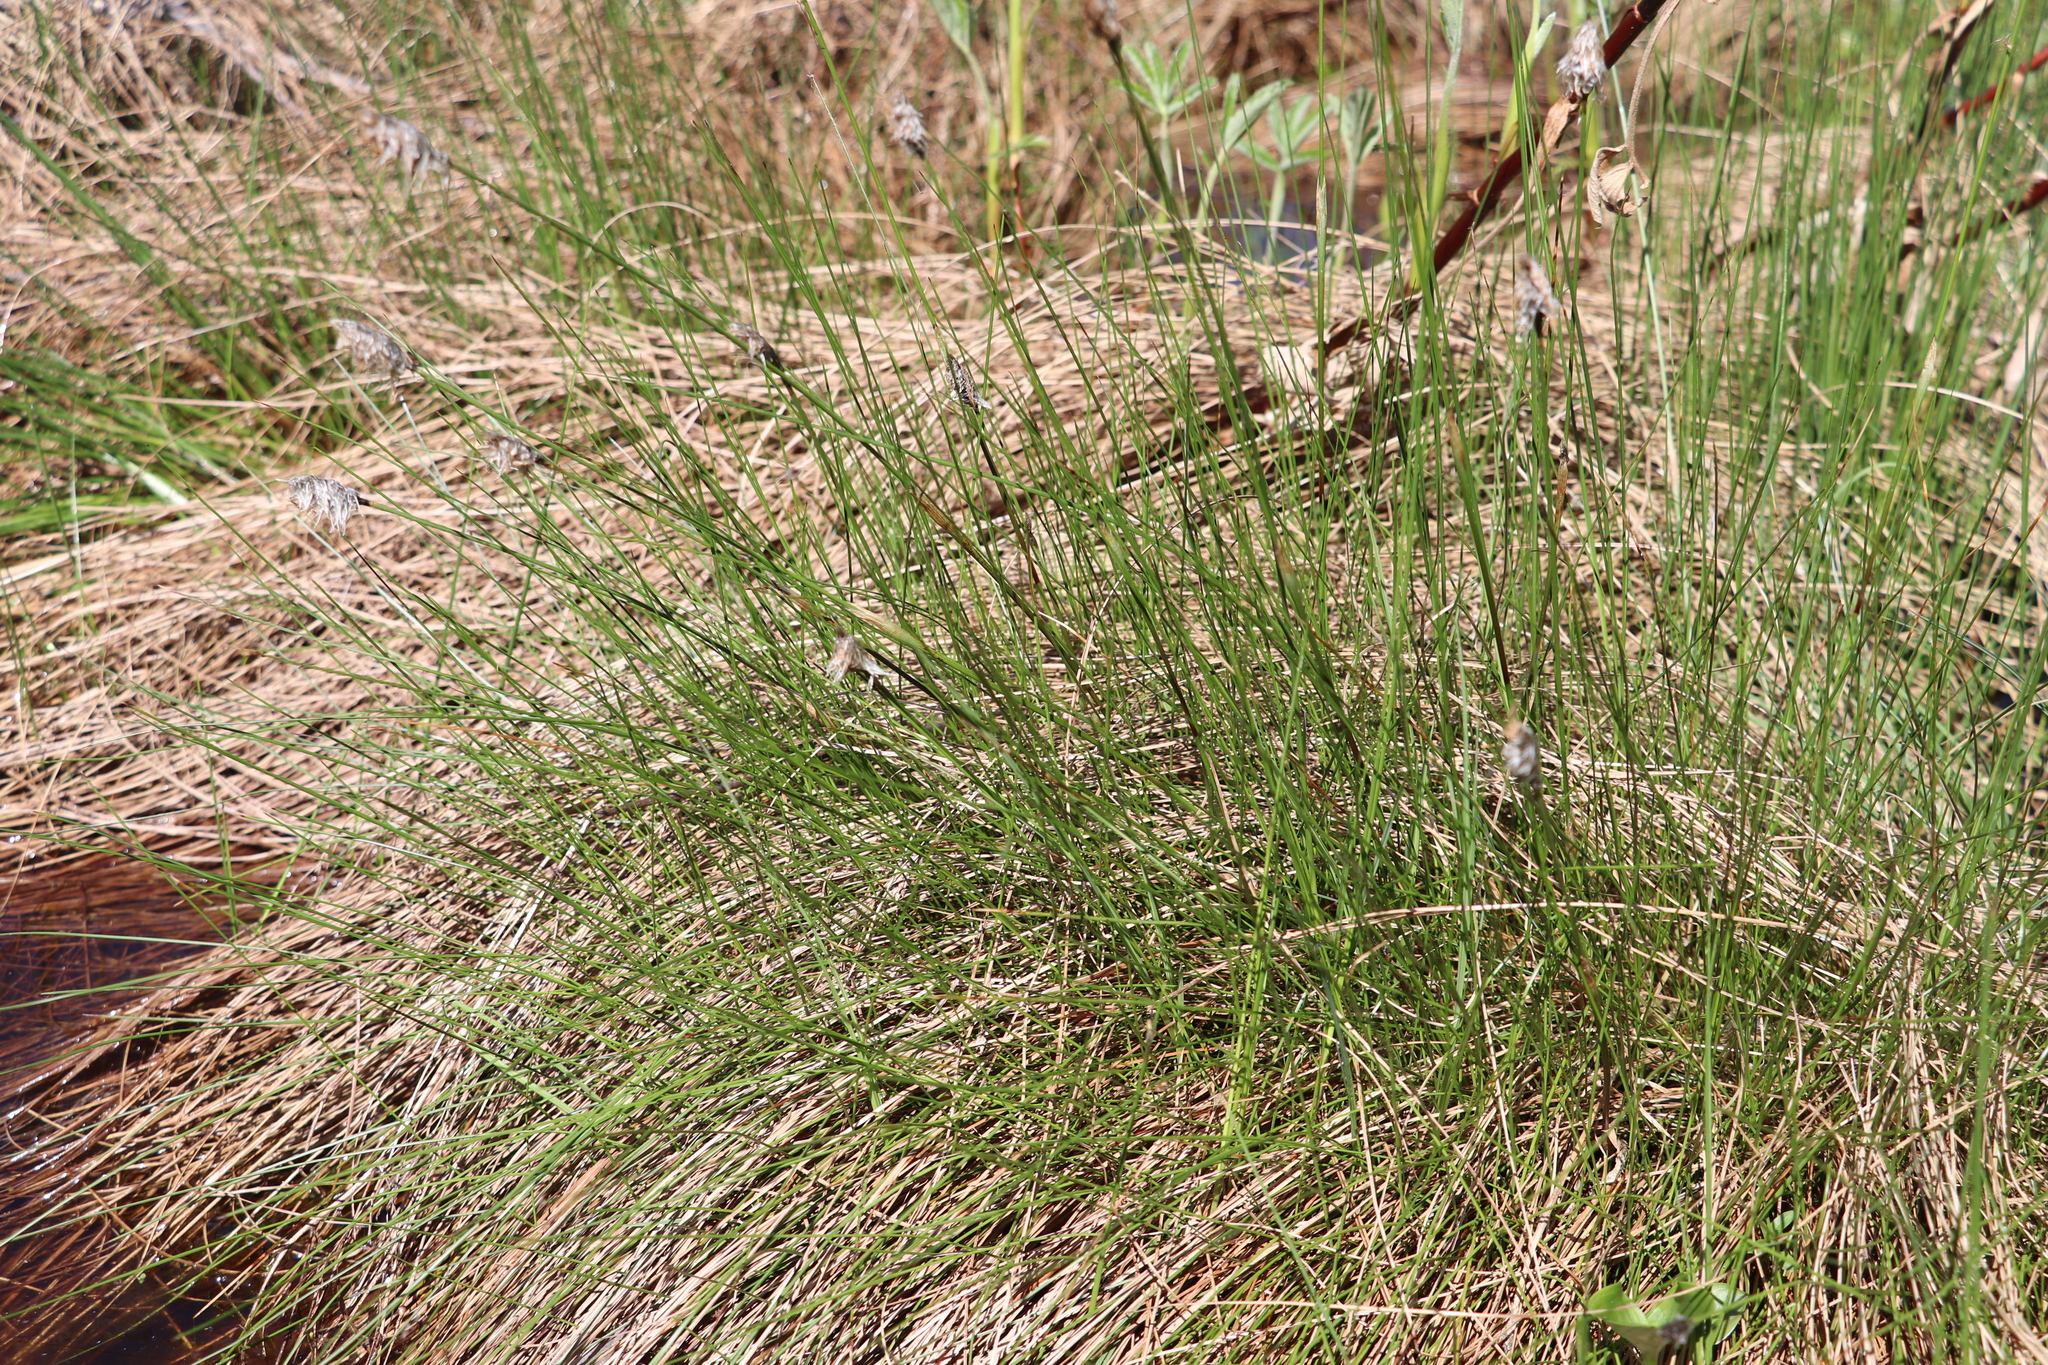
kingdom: Plantae
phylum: Tracheophyta
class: Liliopsida
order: Poales
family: Cyperaceae
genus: Eriophorum
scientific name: Eriophorum vaginatum
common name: Hare's-tail cottongrass
